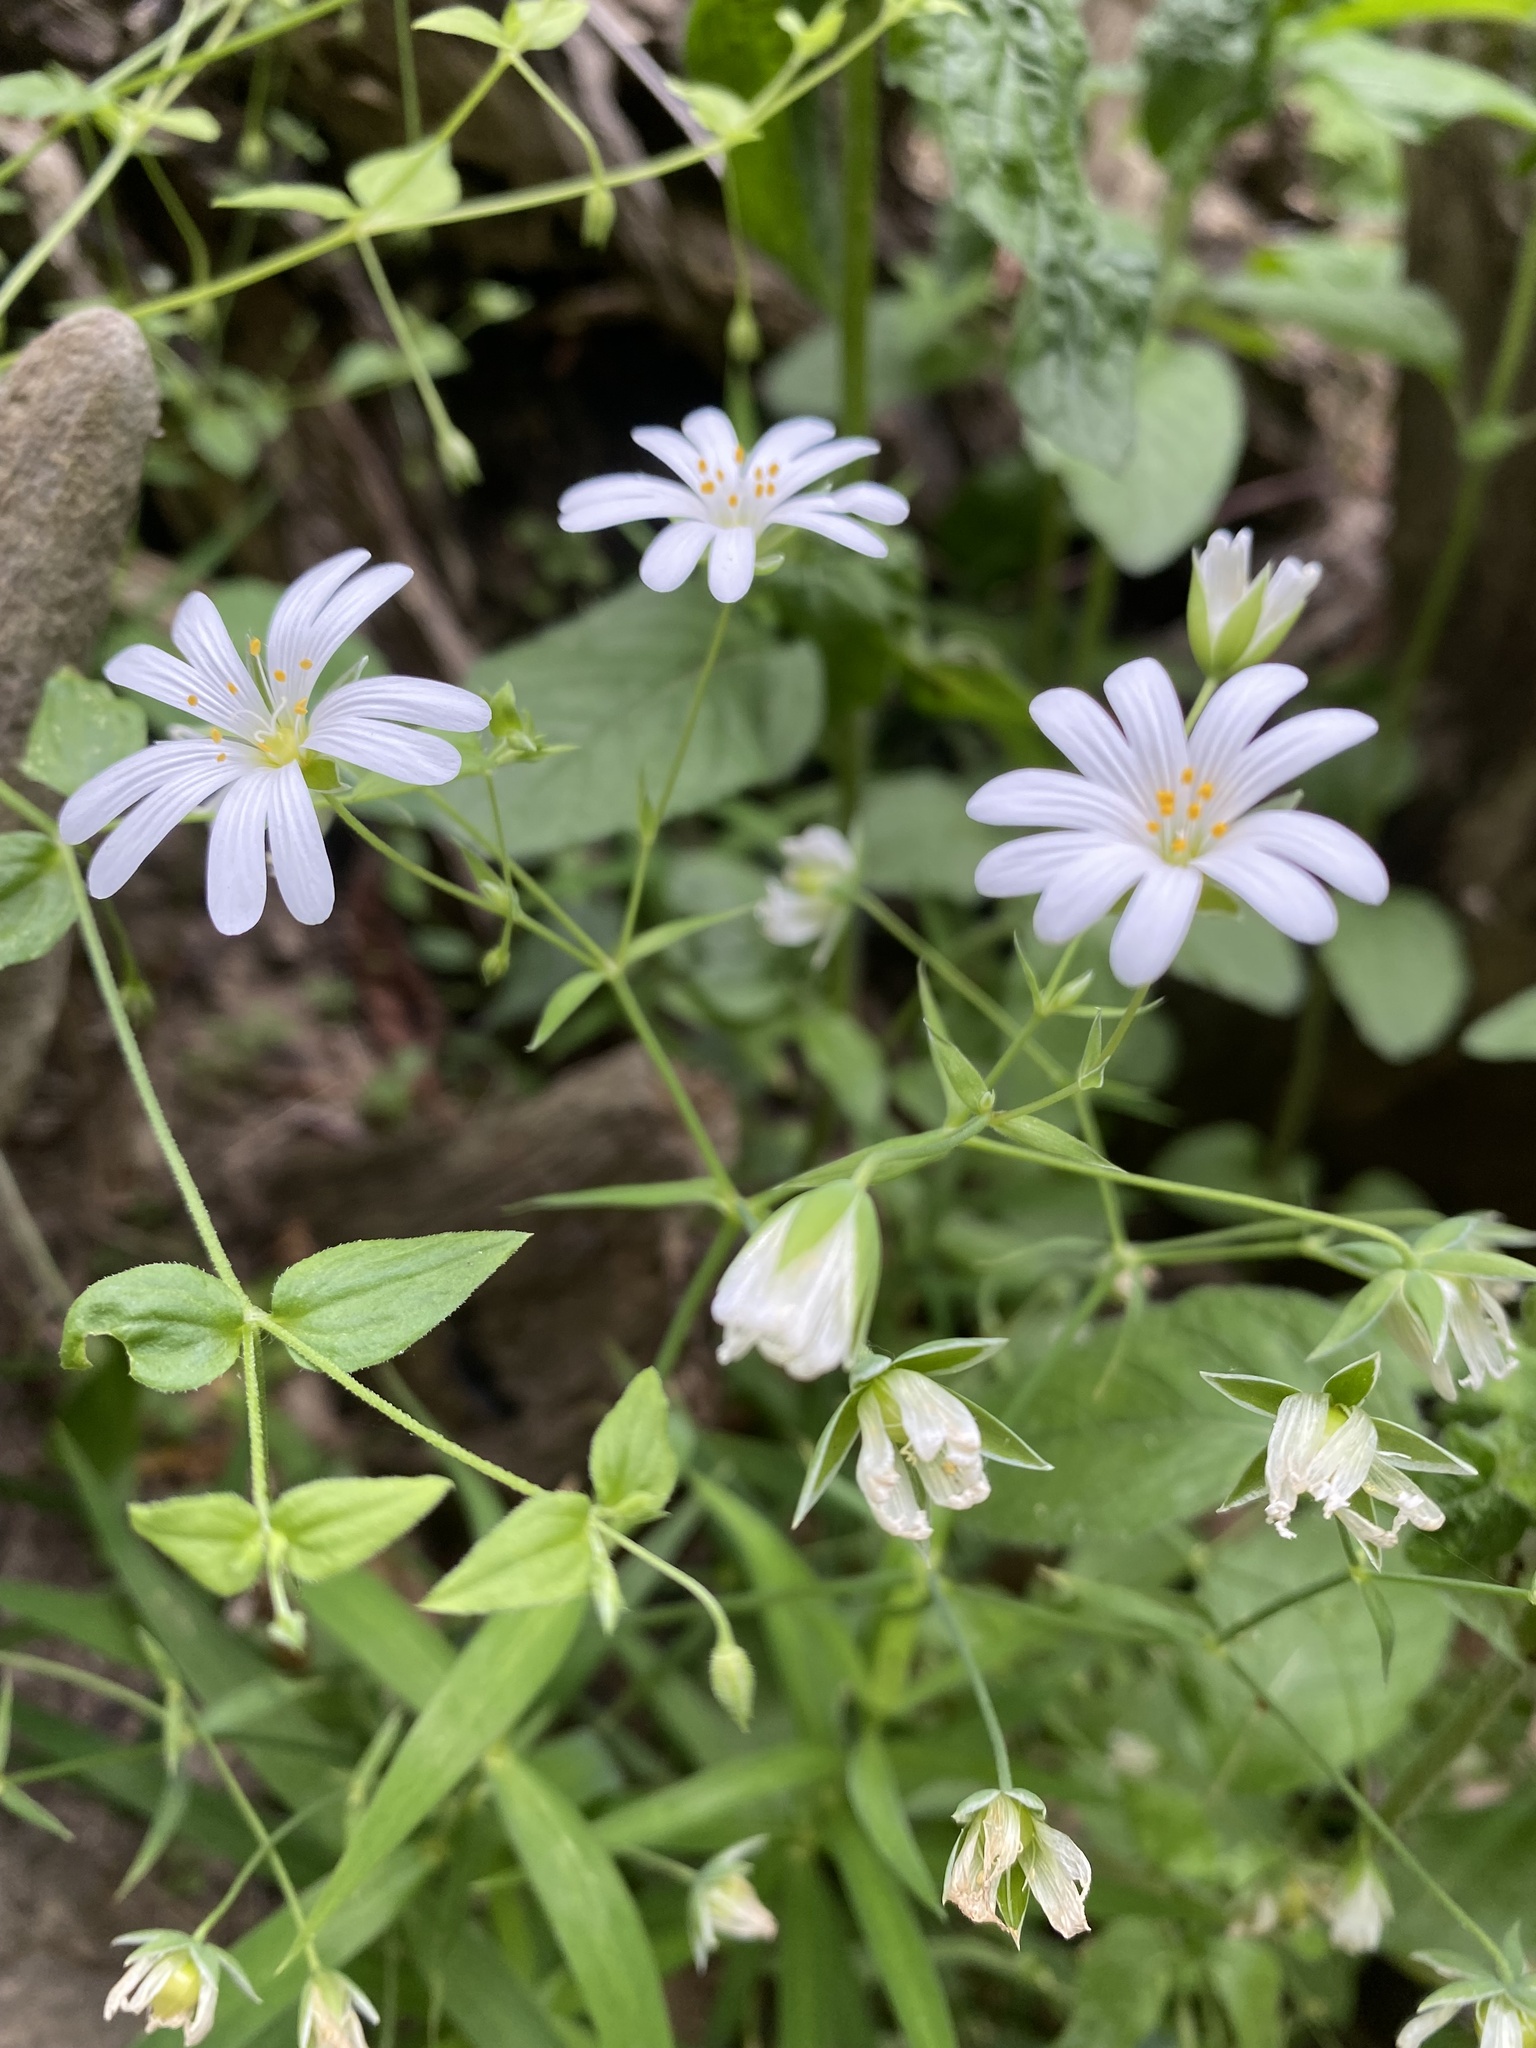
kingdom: Plantae
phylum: Tracheophyta
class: Magnoliopsida
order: Caryophyllales
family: Caryophyllaceae
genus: Rabelera
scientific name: Rabelera holostea
